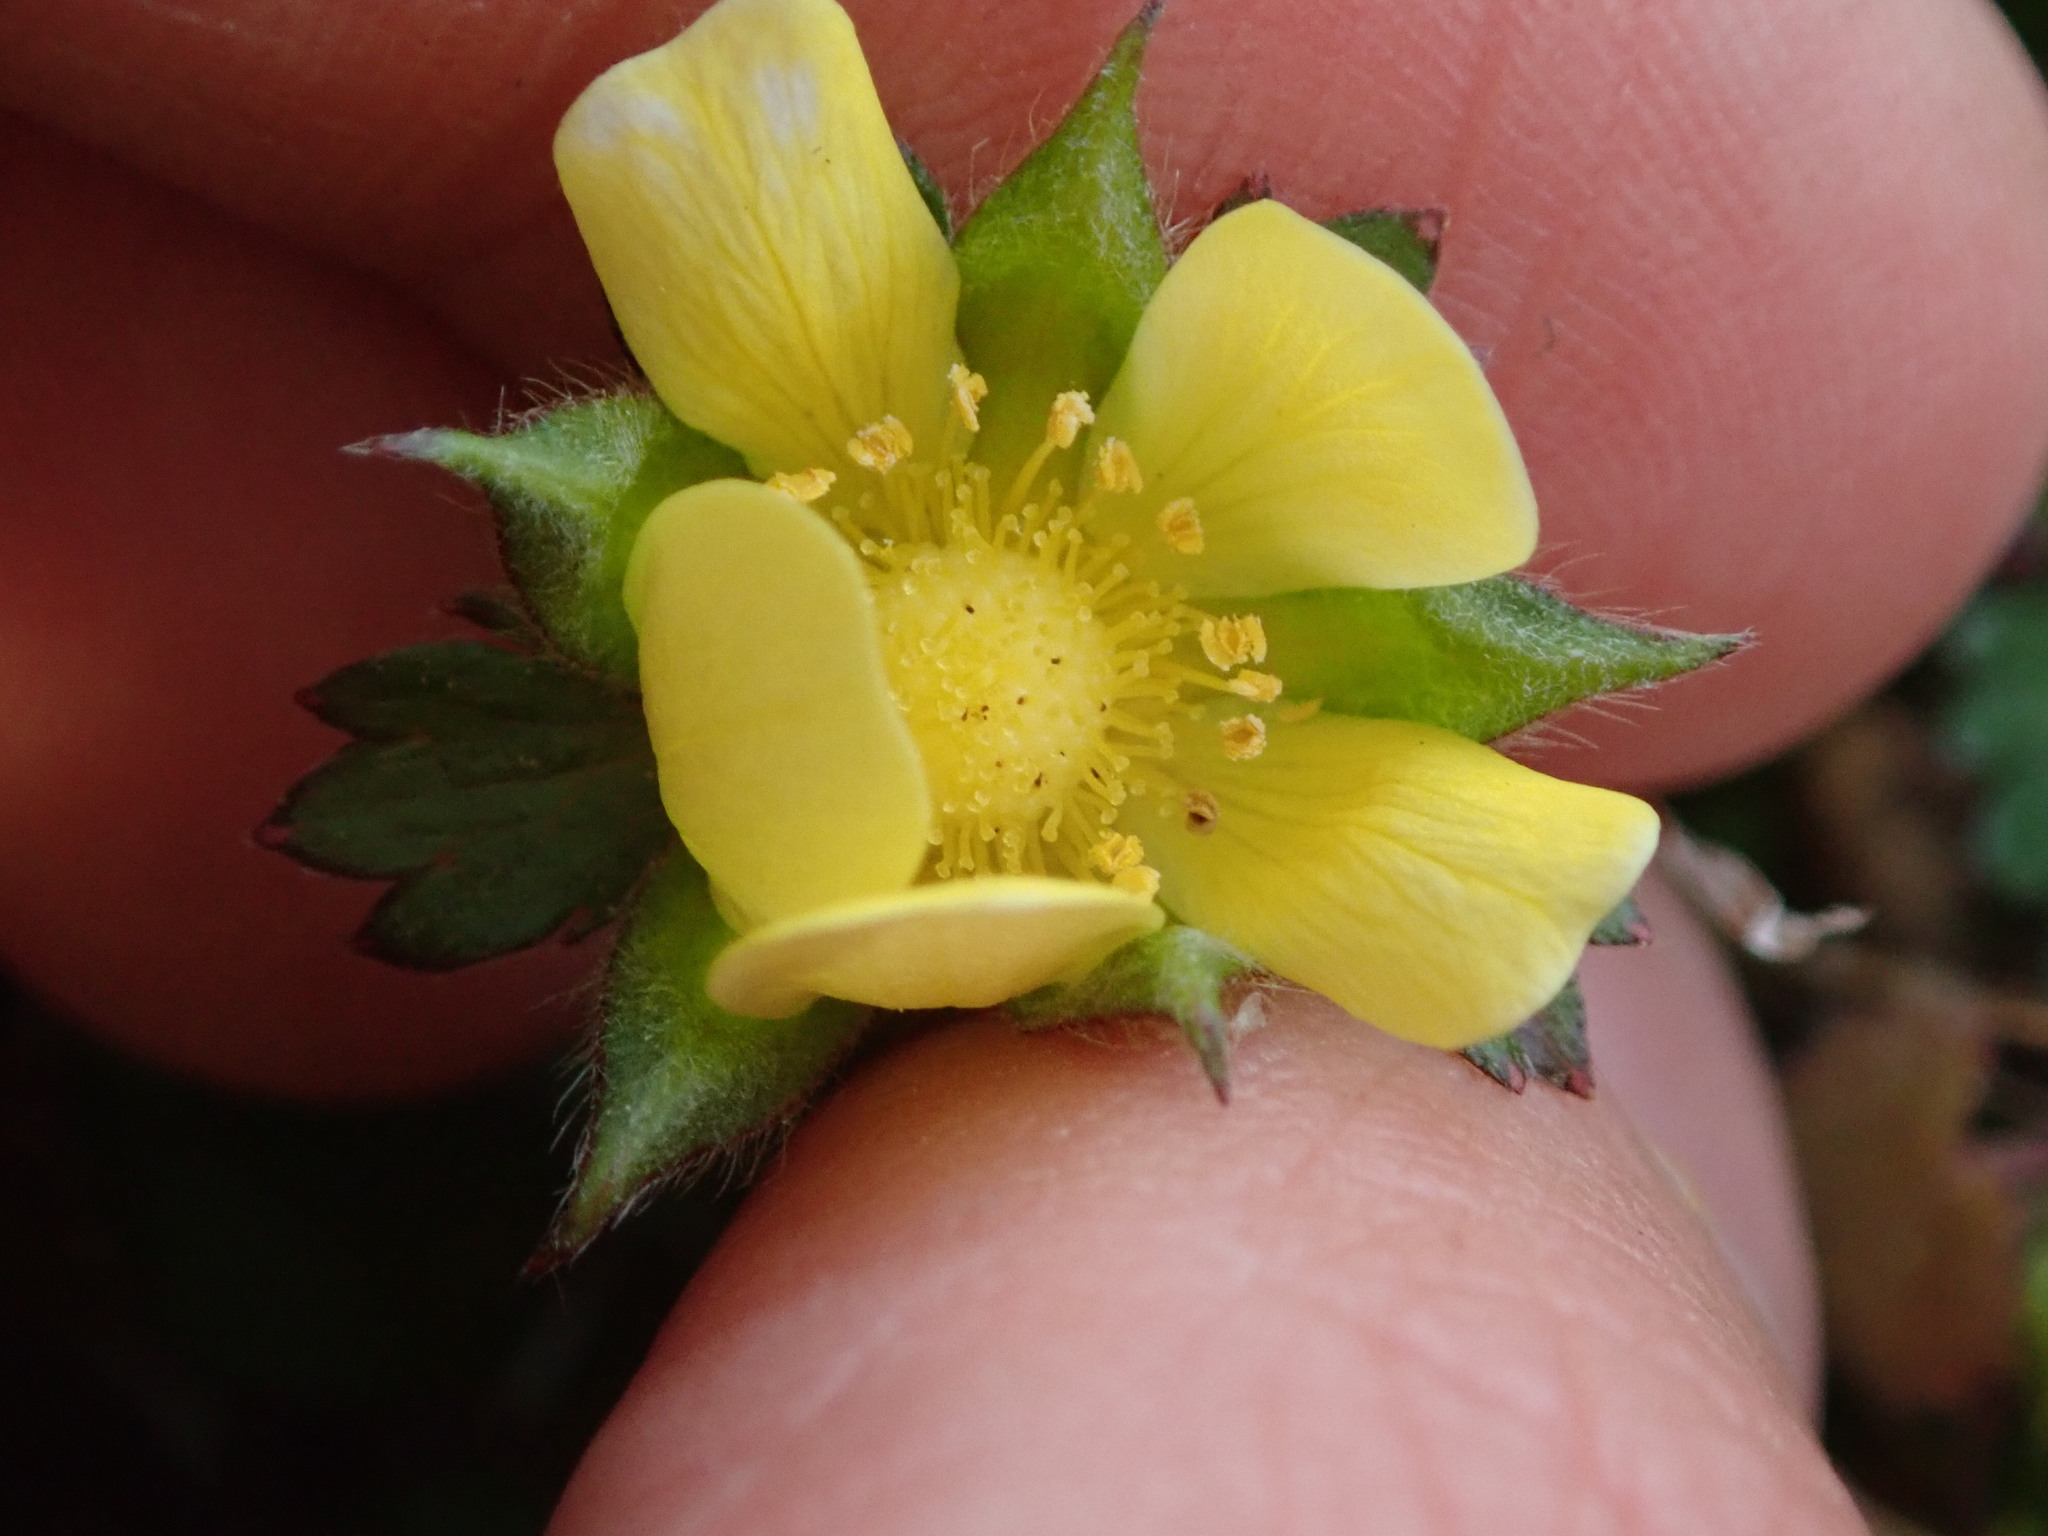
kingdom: Plantae
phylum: Tracheophyta
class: Magnoliopsida
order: Rosales
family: Rosaceae
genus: Potentilla
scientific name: Potentilla indica
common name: Yellow-flowered strawberry
